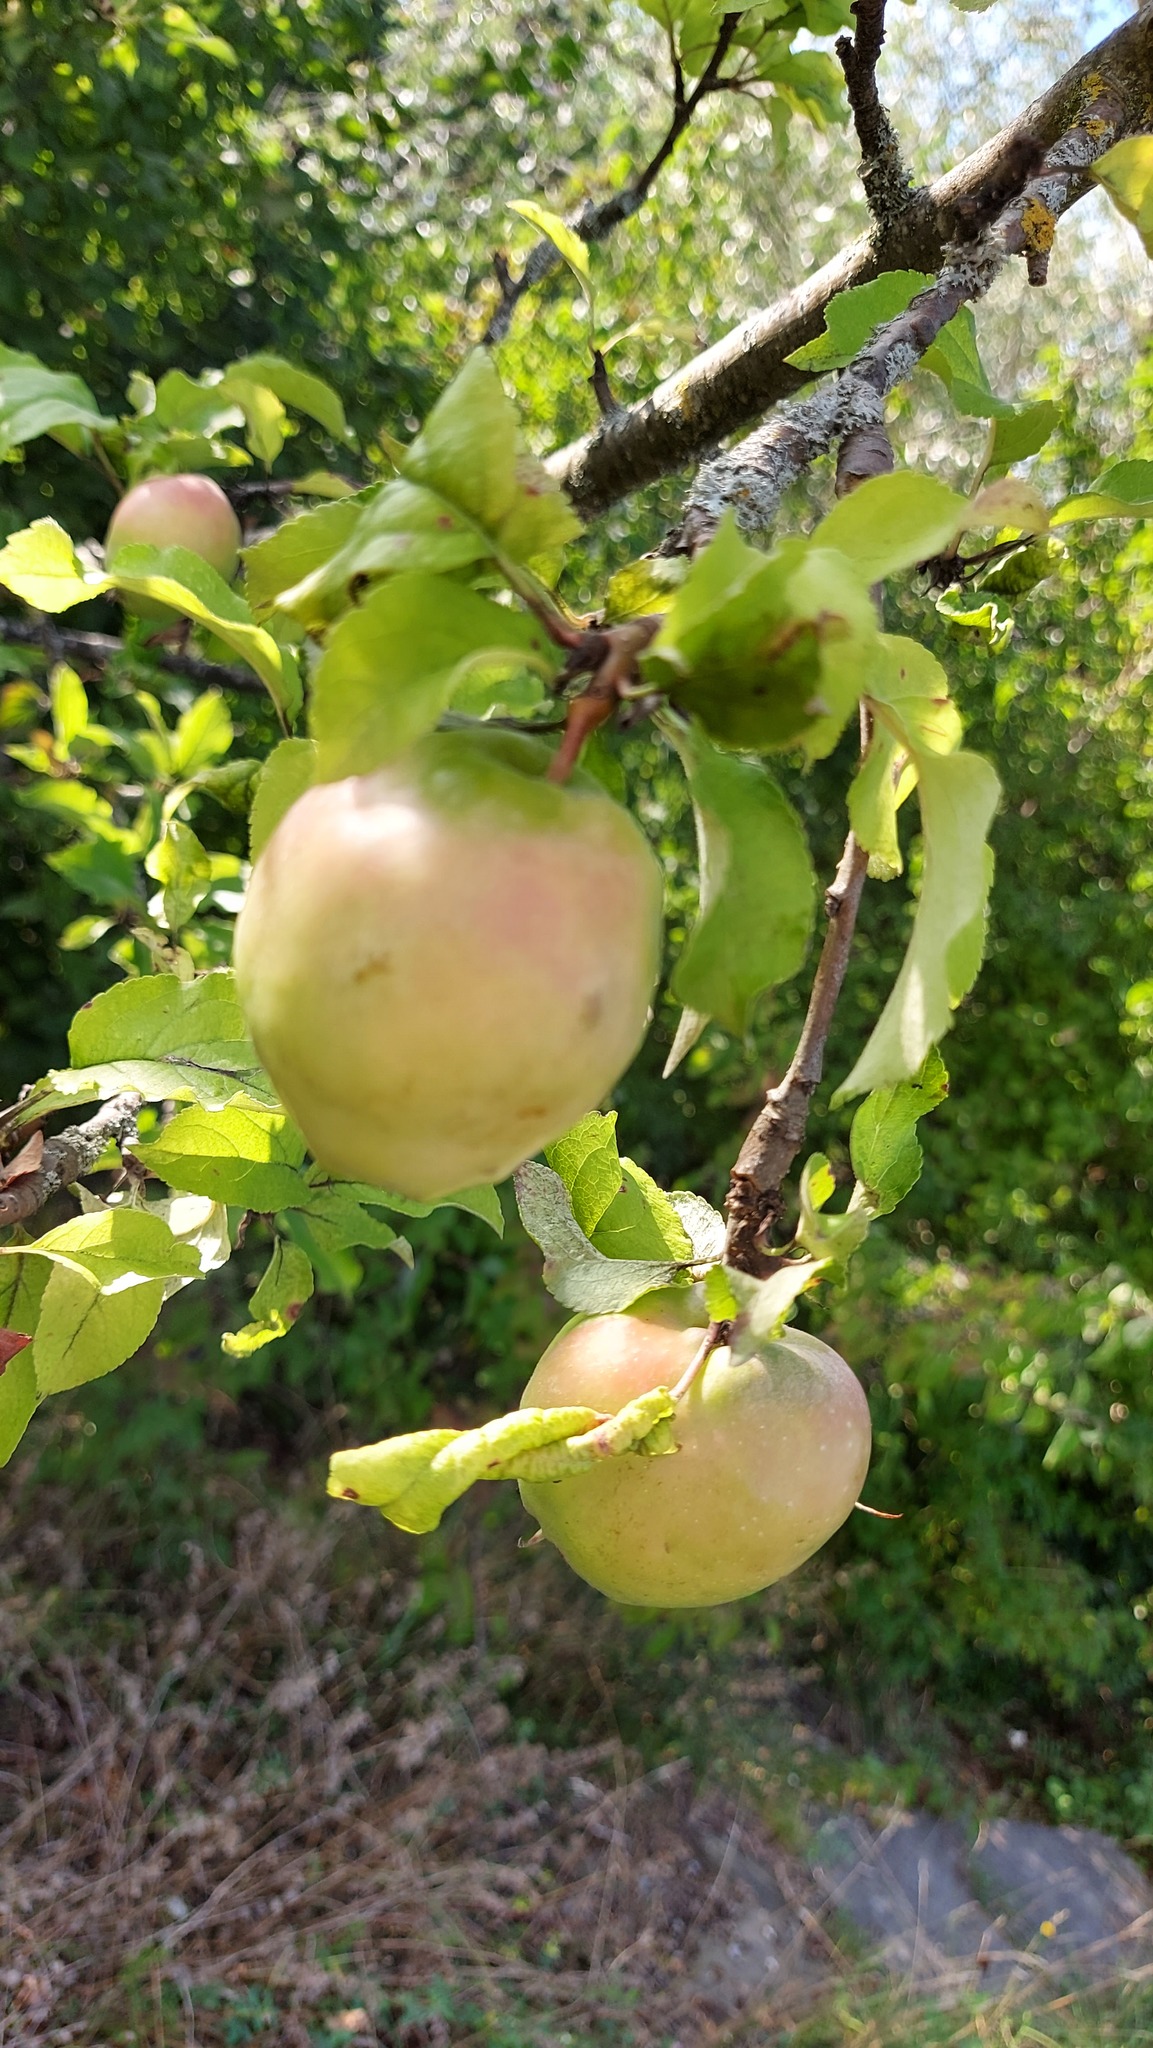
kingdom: Plantae
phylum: Tracheophyta
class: Magnoliopsida
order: Rosales
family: Rosaceae
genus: Malus
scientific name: Malus domestica
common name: Apple
